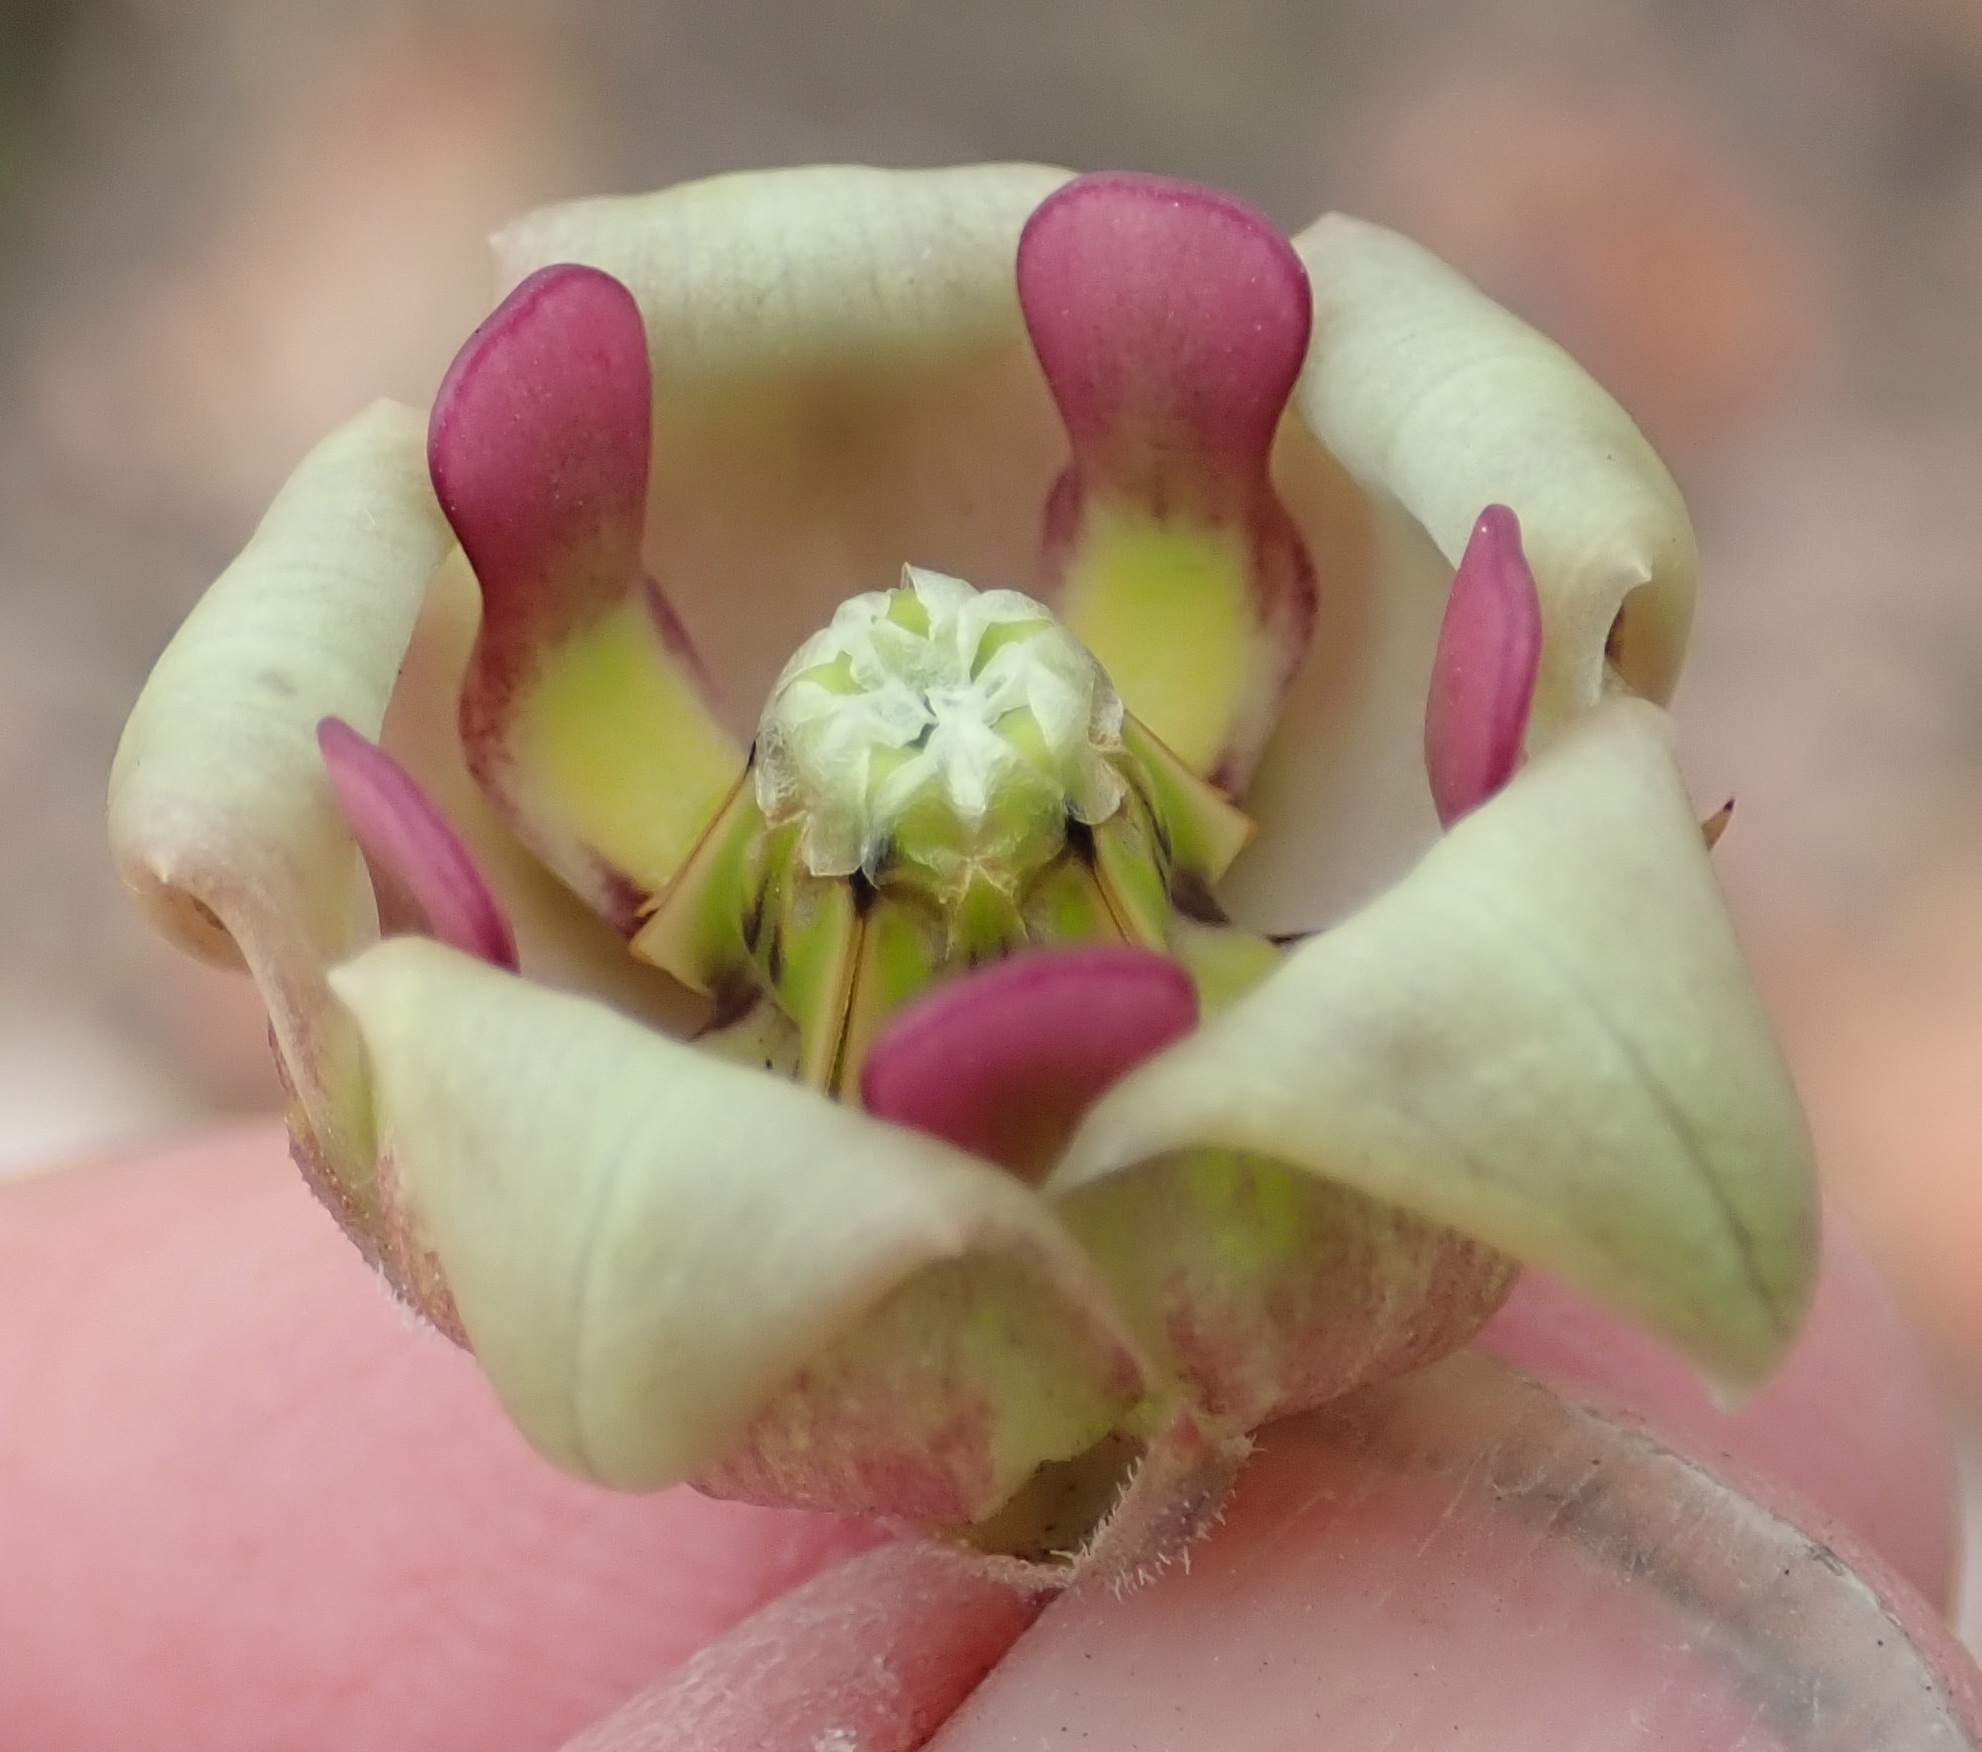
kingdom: Plantae
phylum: Tracheophyta
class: Magnoliopsida
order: Gentianales
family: Apocynaceae
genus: Pachycarpus
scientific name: Pachycarpus dealbatus
